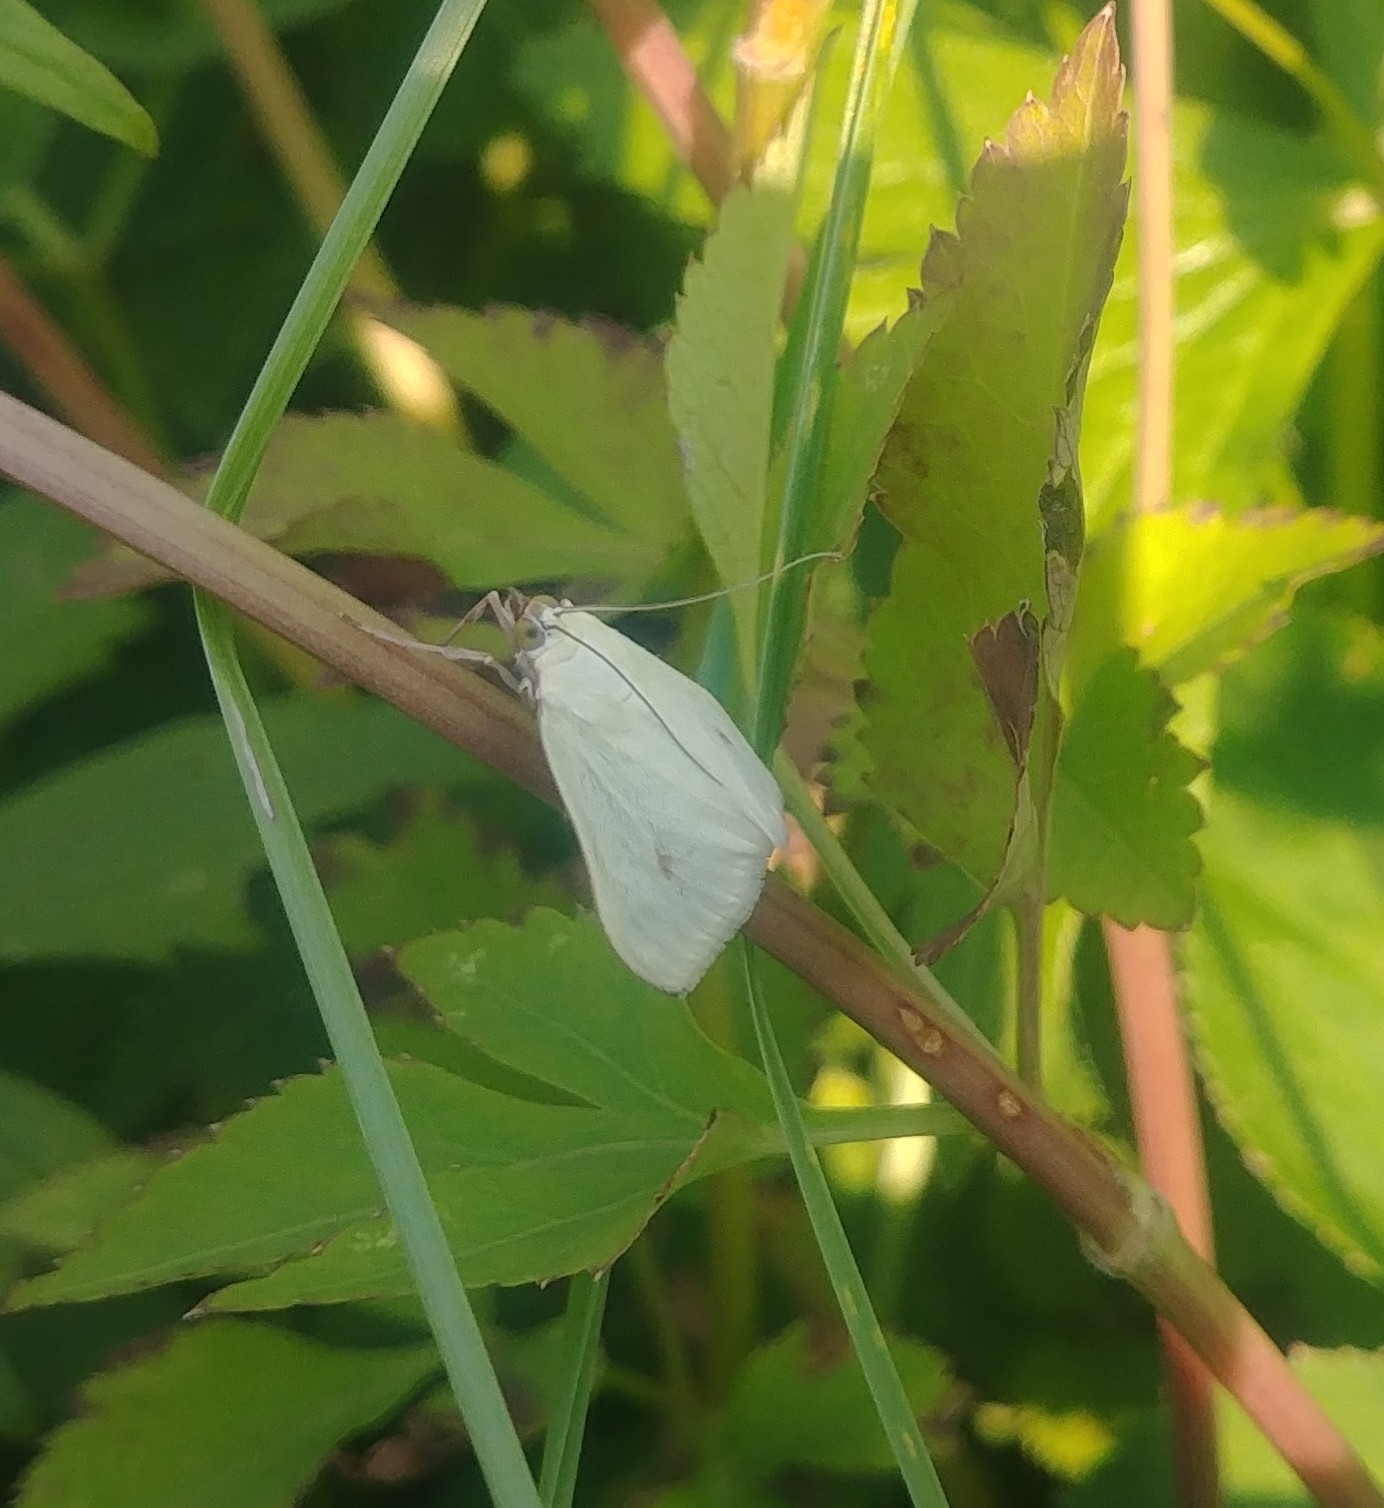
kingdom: Animalia
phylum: Arthropoda
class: Insecta
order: Lepidoptera
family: Crambidae
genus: Sitochroa
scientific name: Sitochroa palealis
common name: Greenish-yellow sitochroa moth
